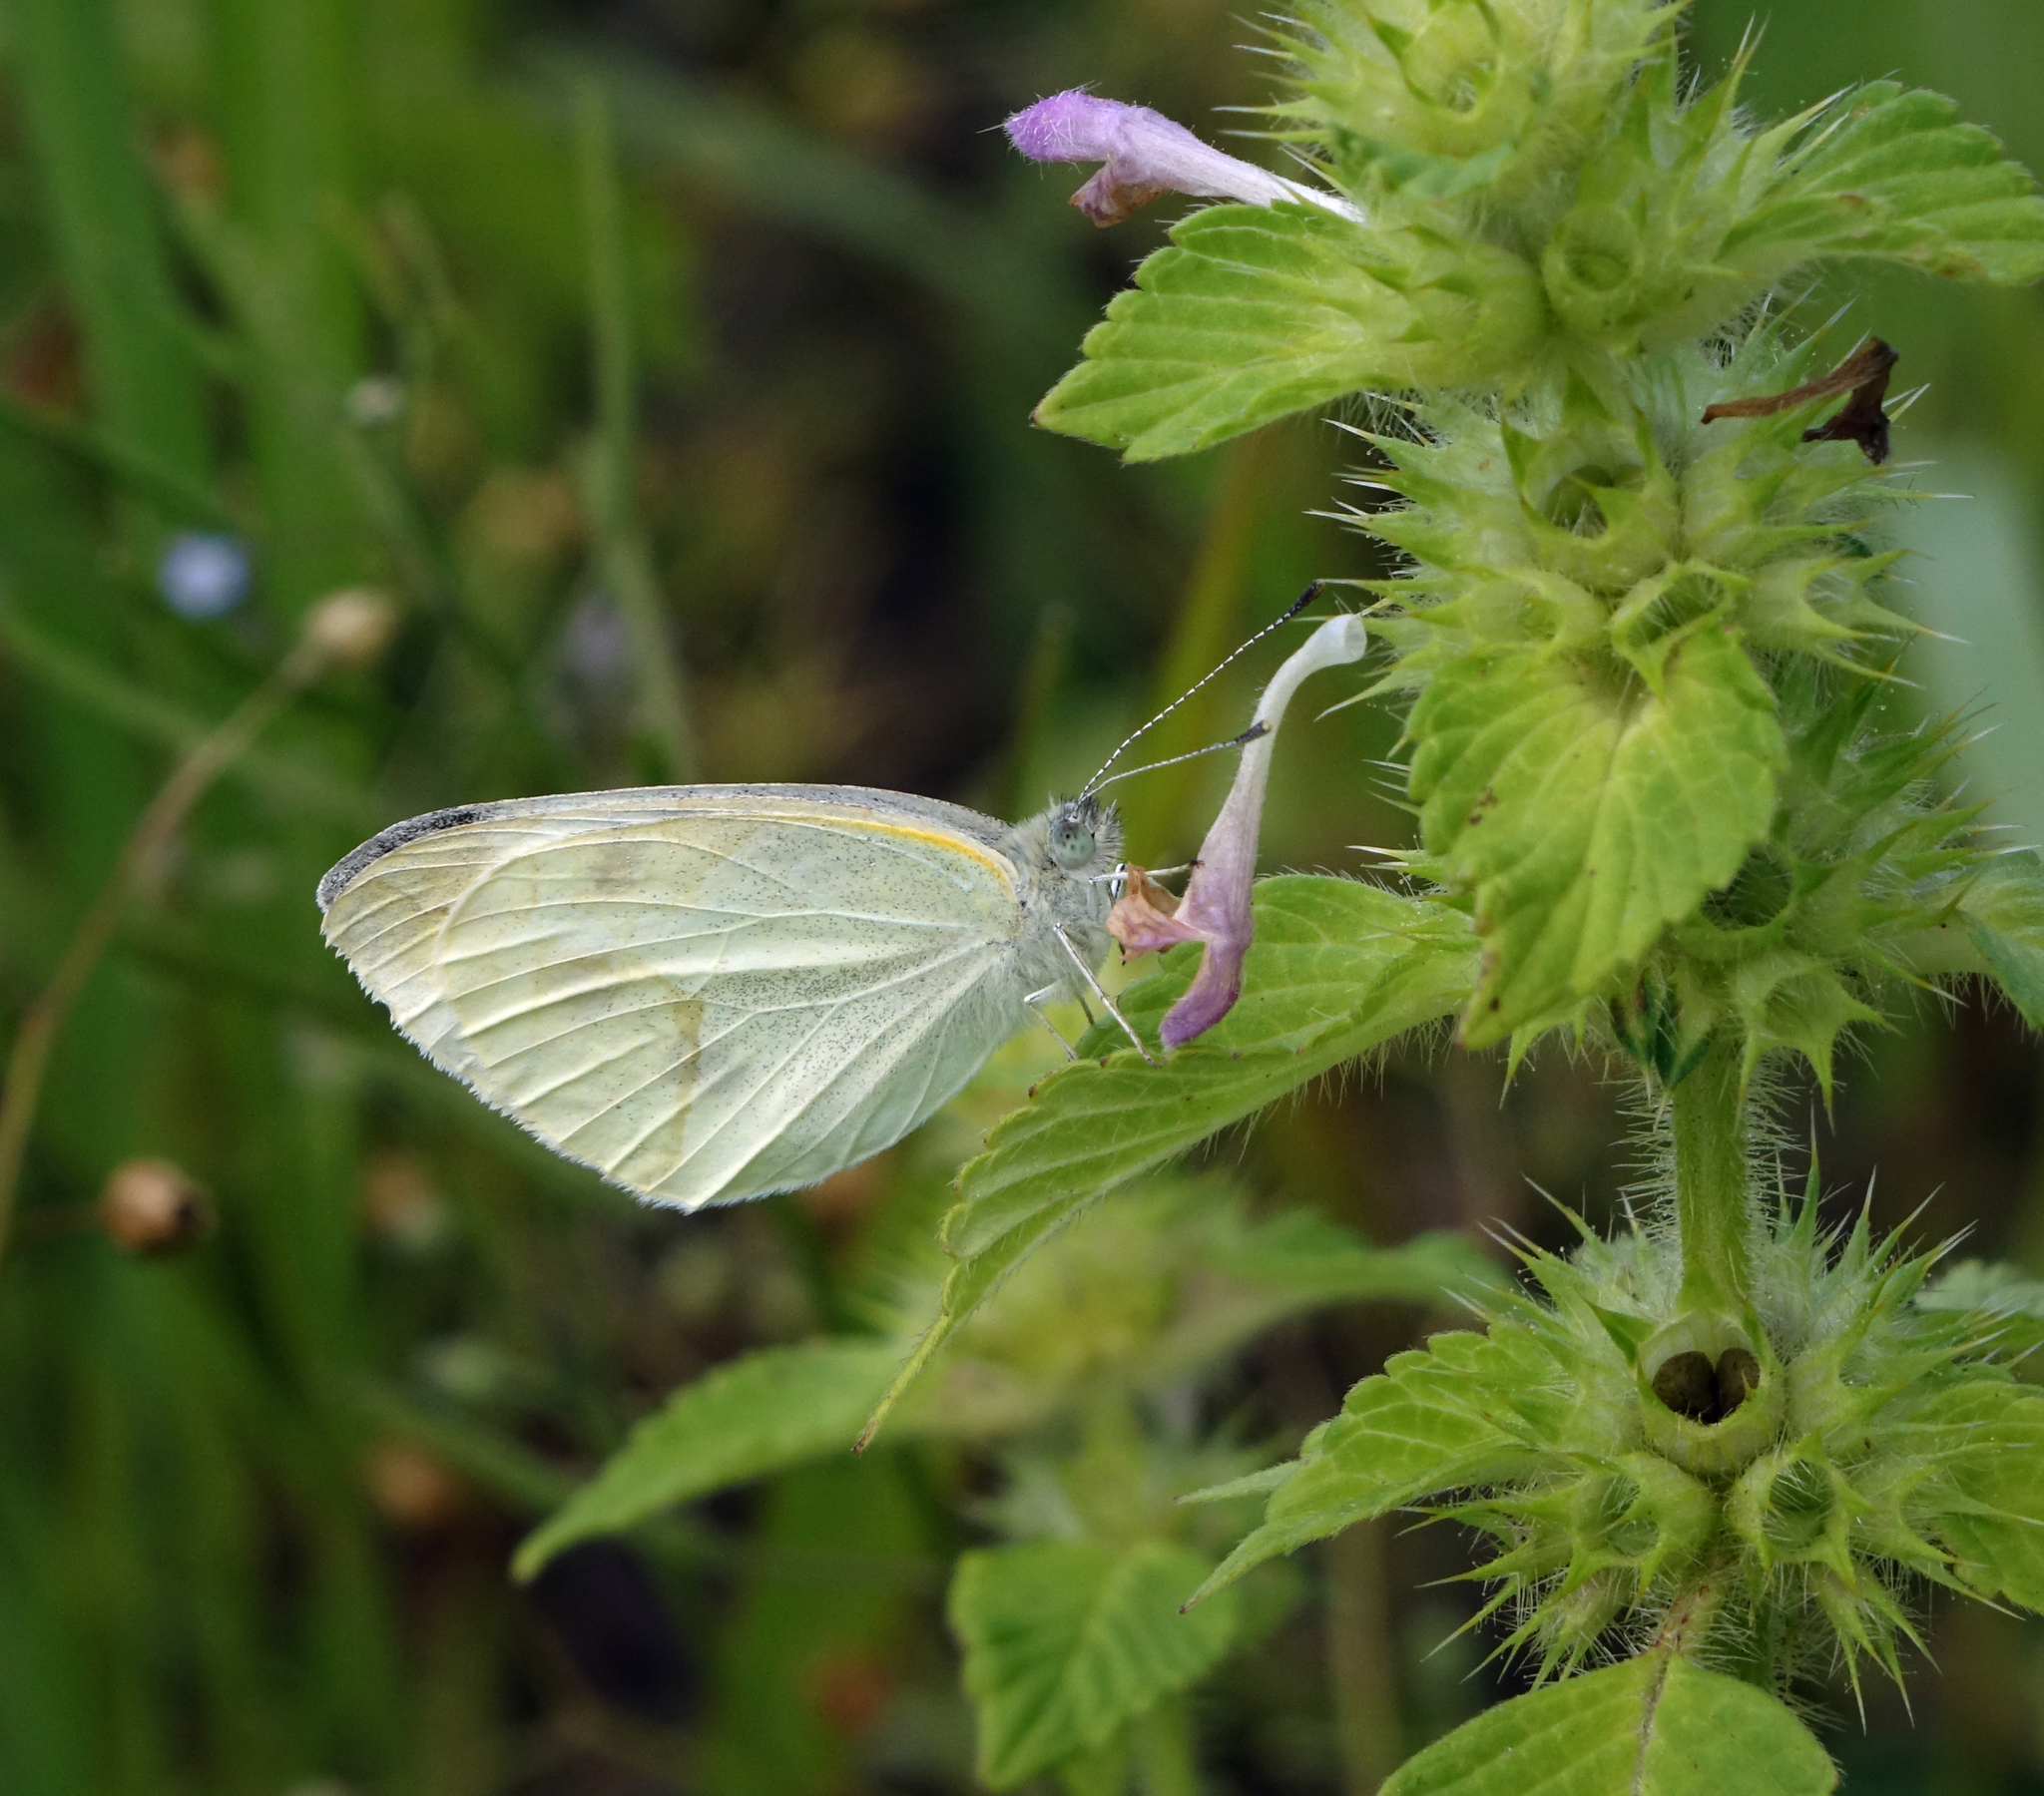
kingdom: Animalia
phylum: Arthropoda
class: Insecta
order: Lepidoptera
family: Pieridae
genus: Pieris
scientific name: Pieris rapae
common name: Small white
